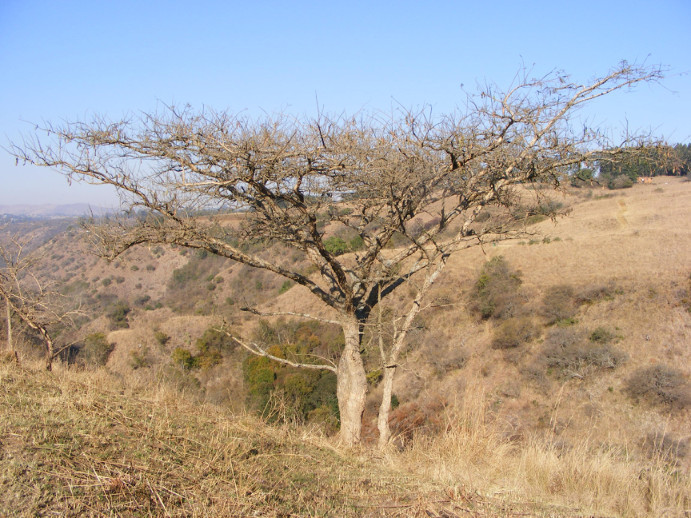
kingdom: Plantae
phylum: Tracheophyta
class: Magnoliopsida
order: Fabales
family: Fabaceae
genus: Vachellia
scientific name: Vachellia sieberiana
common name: Flat-topped thorn
